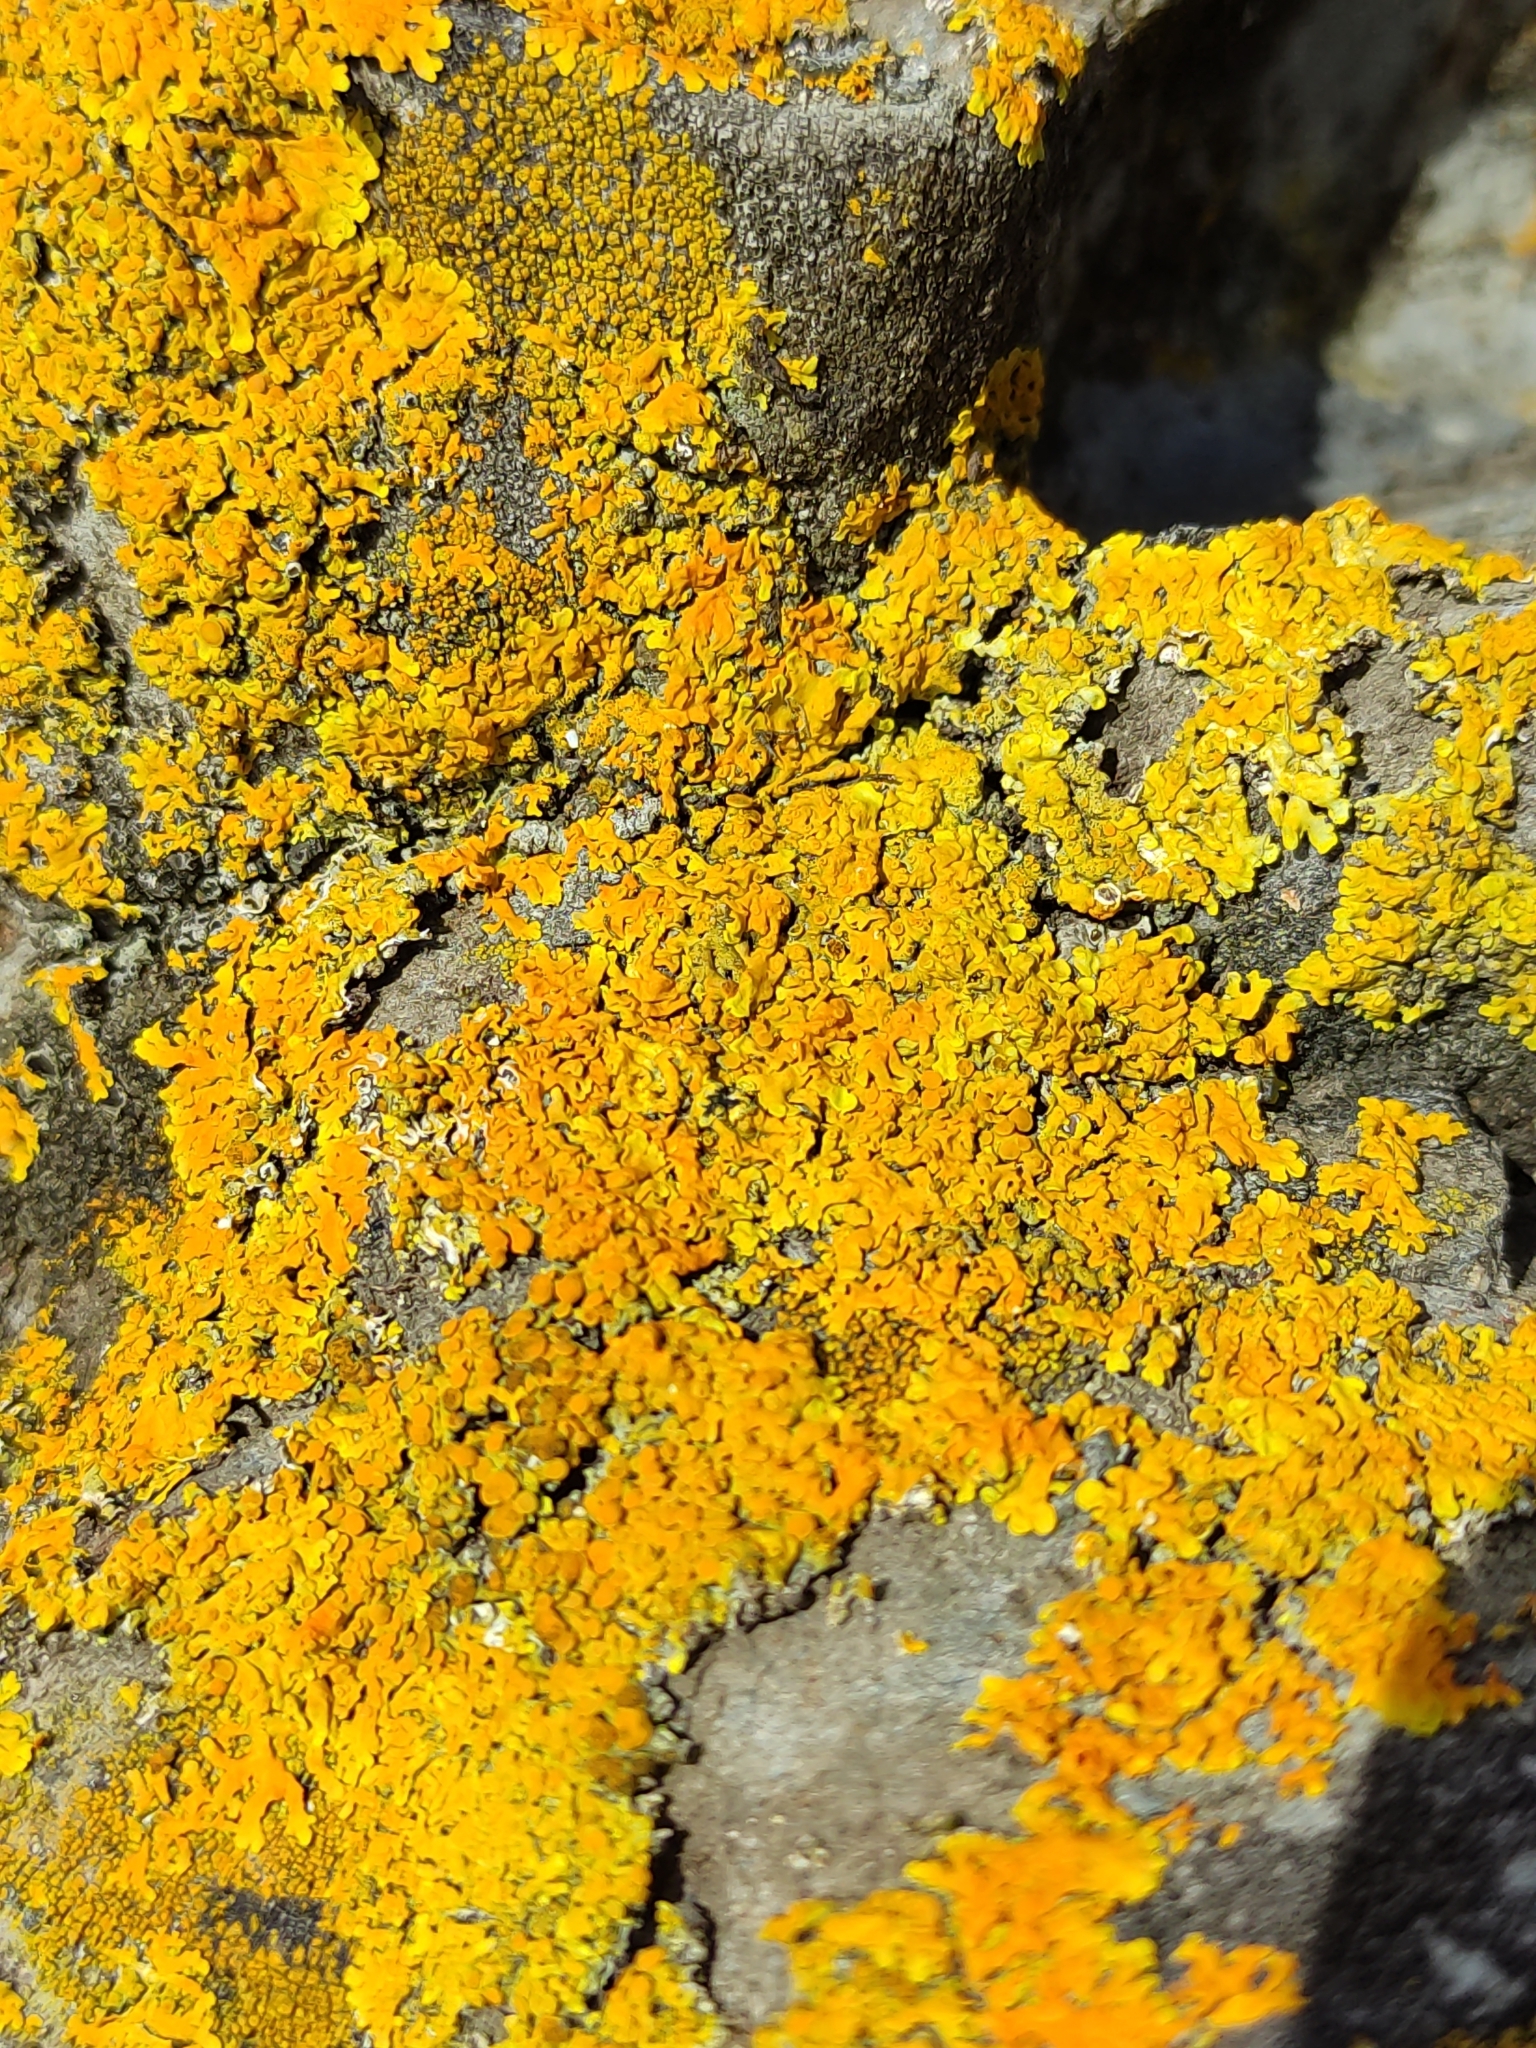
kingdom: Fungi
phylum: Ascomycota
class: Lecanoromycetes
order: Teloschistales
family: Teloschistaceae
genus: Xanthoria
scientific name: Xanthoria parietina
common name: Common orange lichen
